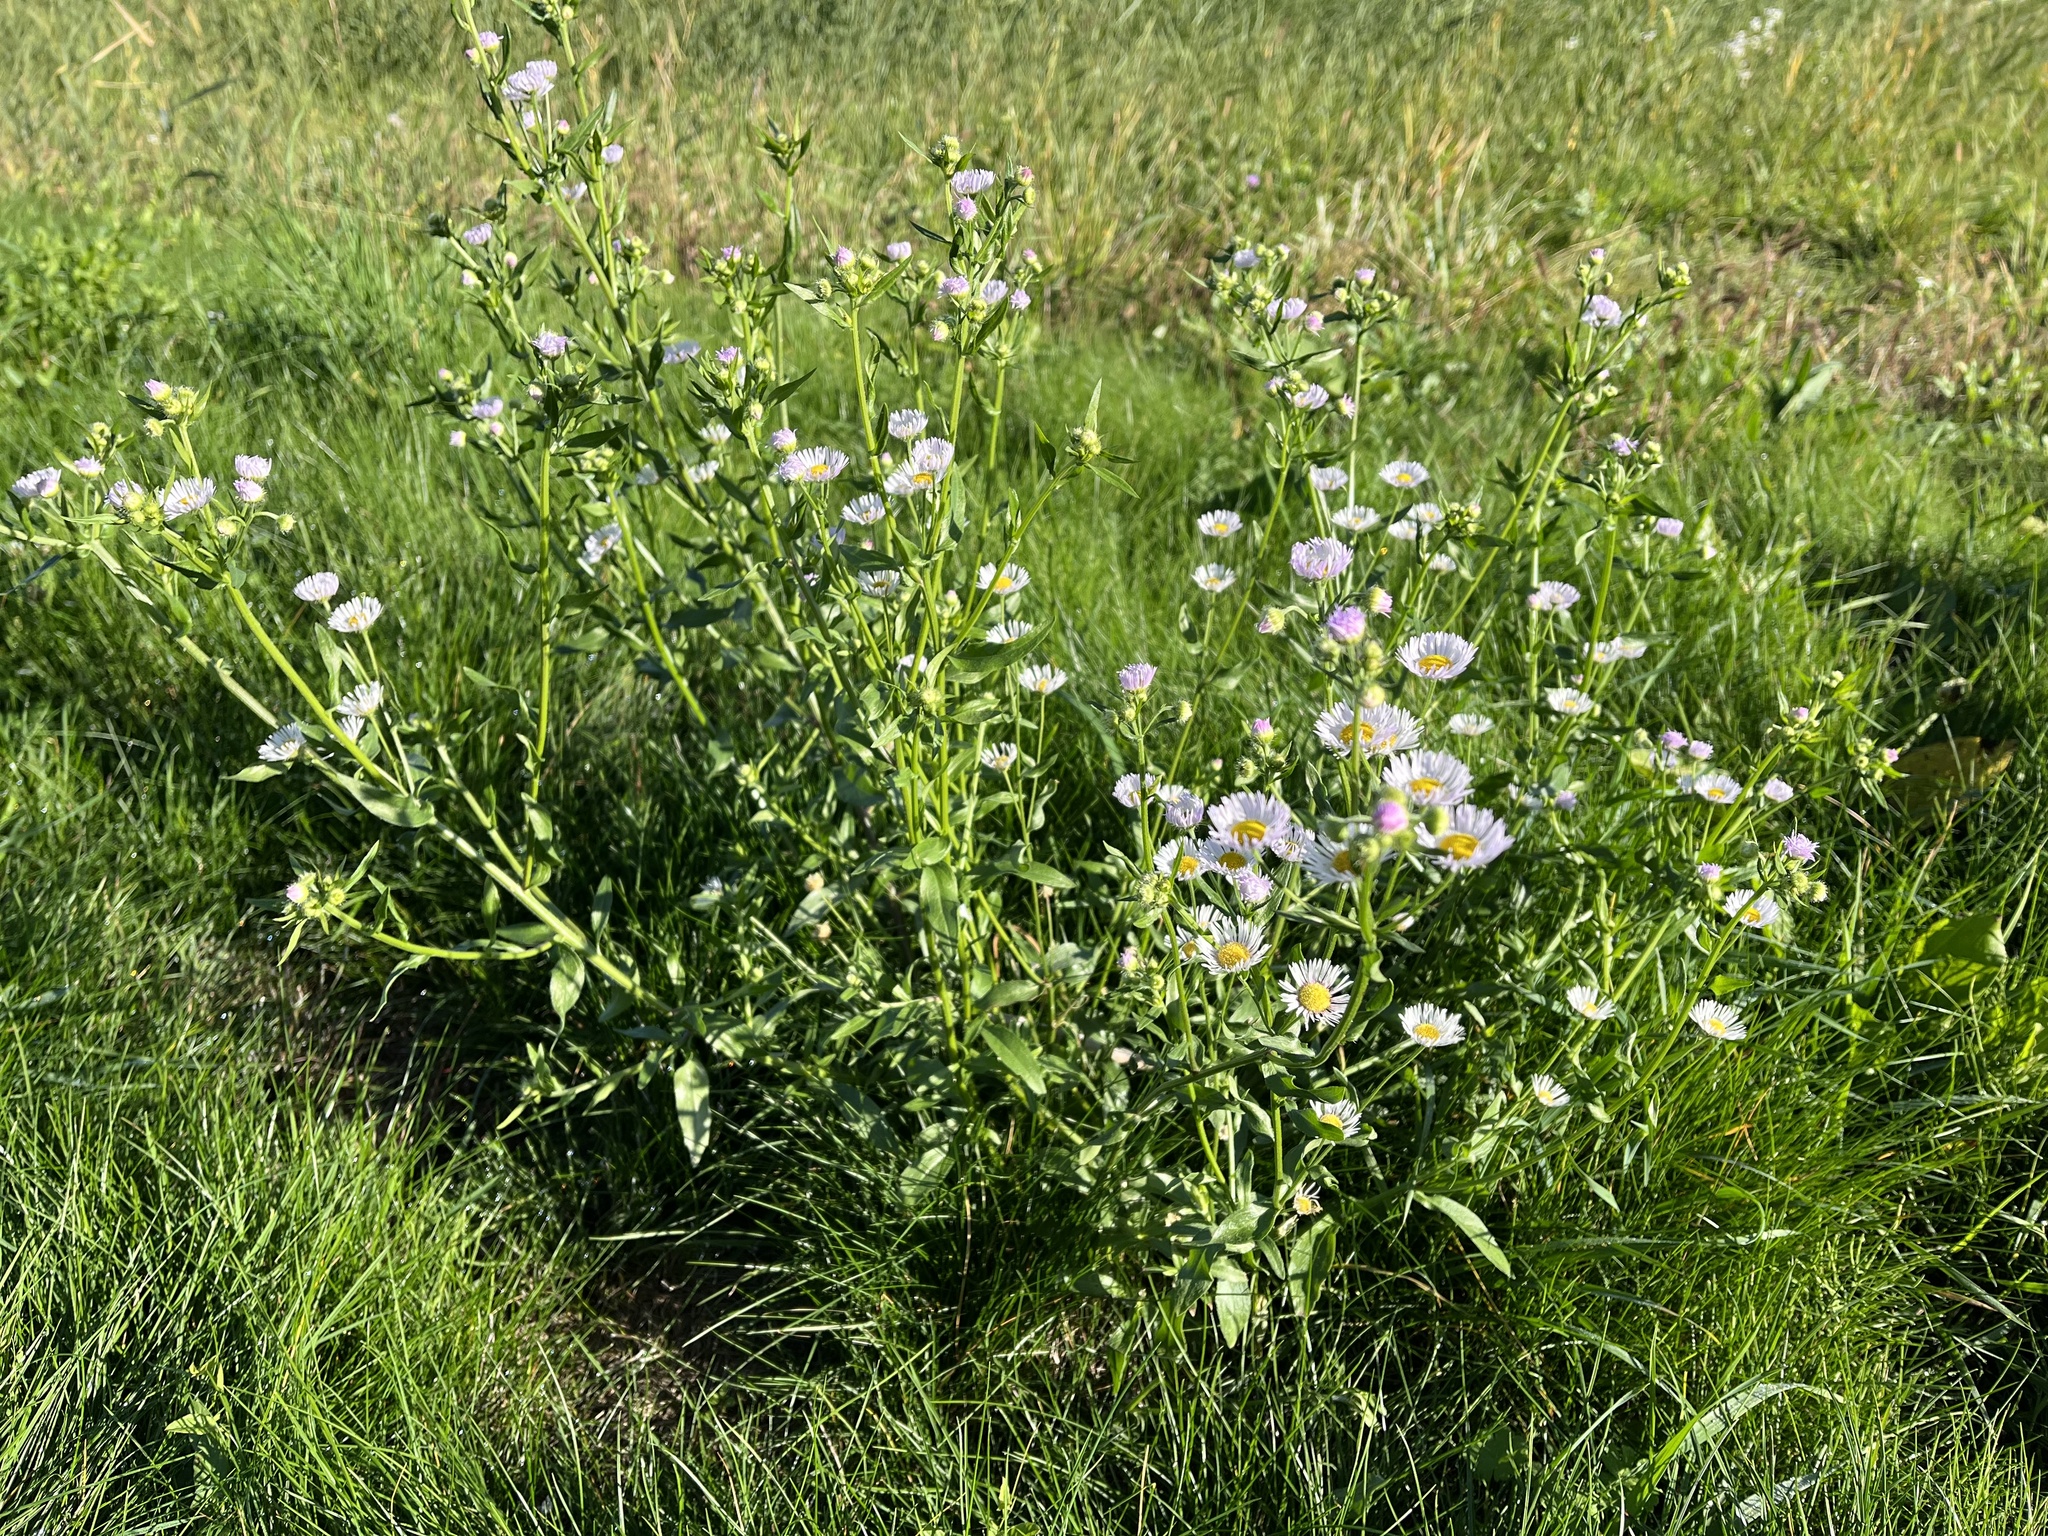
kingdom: Plantae
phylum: Tracheophyta
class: Magnoliopsida
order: Asterales
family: Asteraceae
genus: Erigeron
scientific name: Erigeron annuus
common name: Tall fleabane
